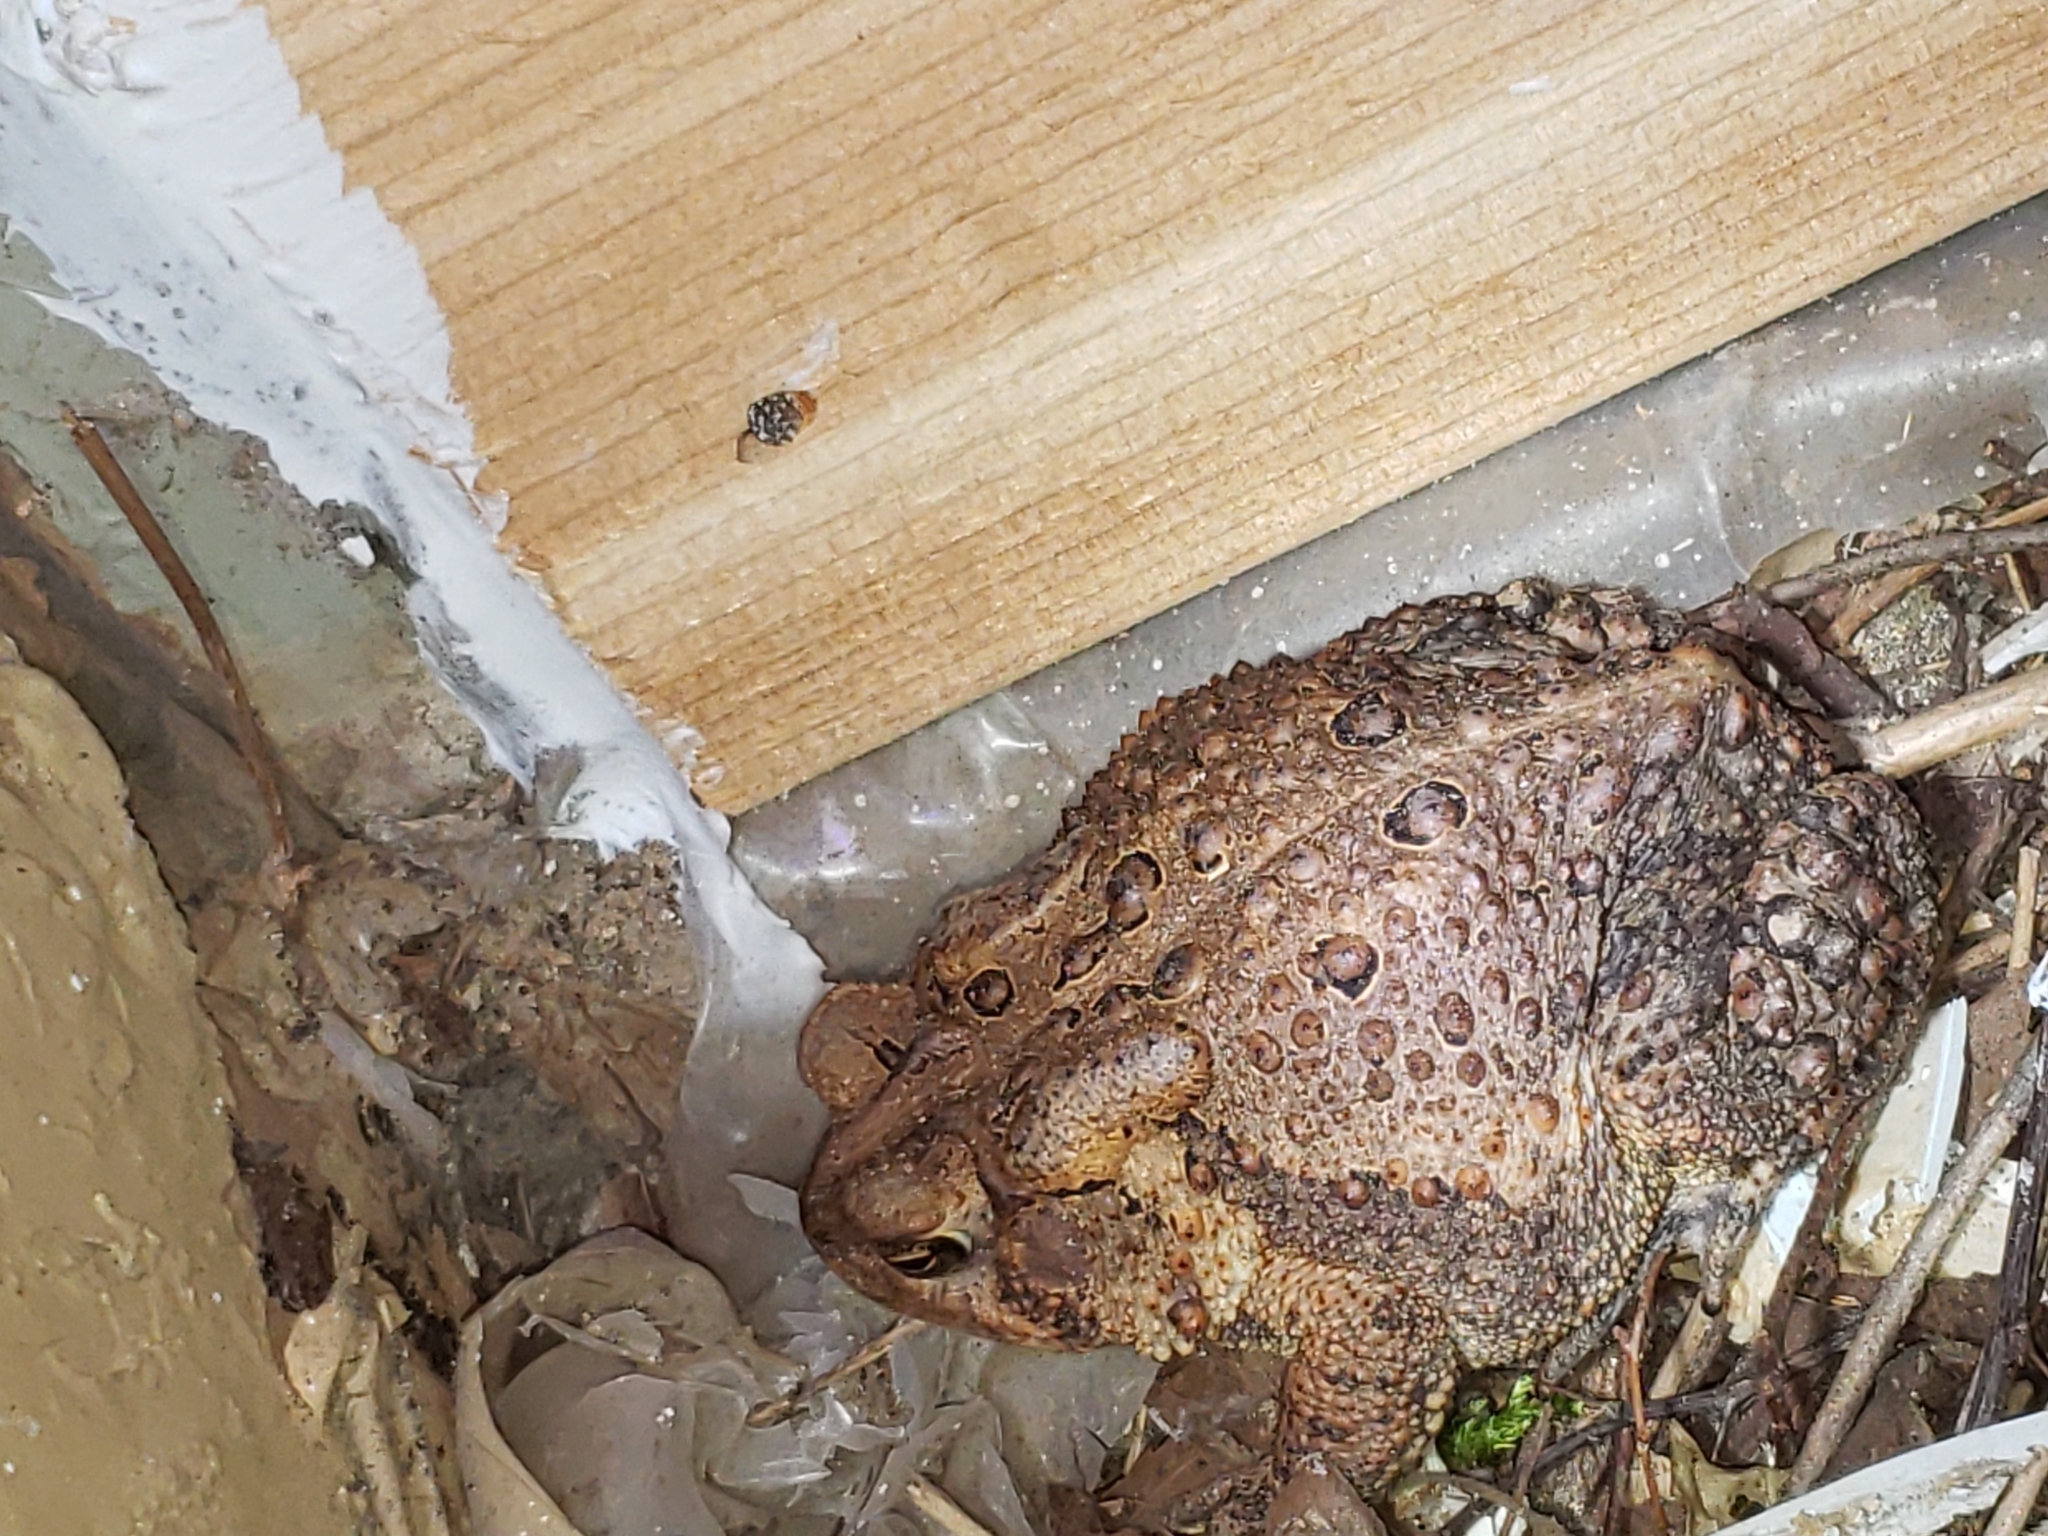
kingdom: Animalia
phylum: Chordata
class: Amphibia
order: Anura
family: Bufonidae
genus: Anaxyrus
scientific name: Anaxyrus americanus
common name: American toad
